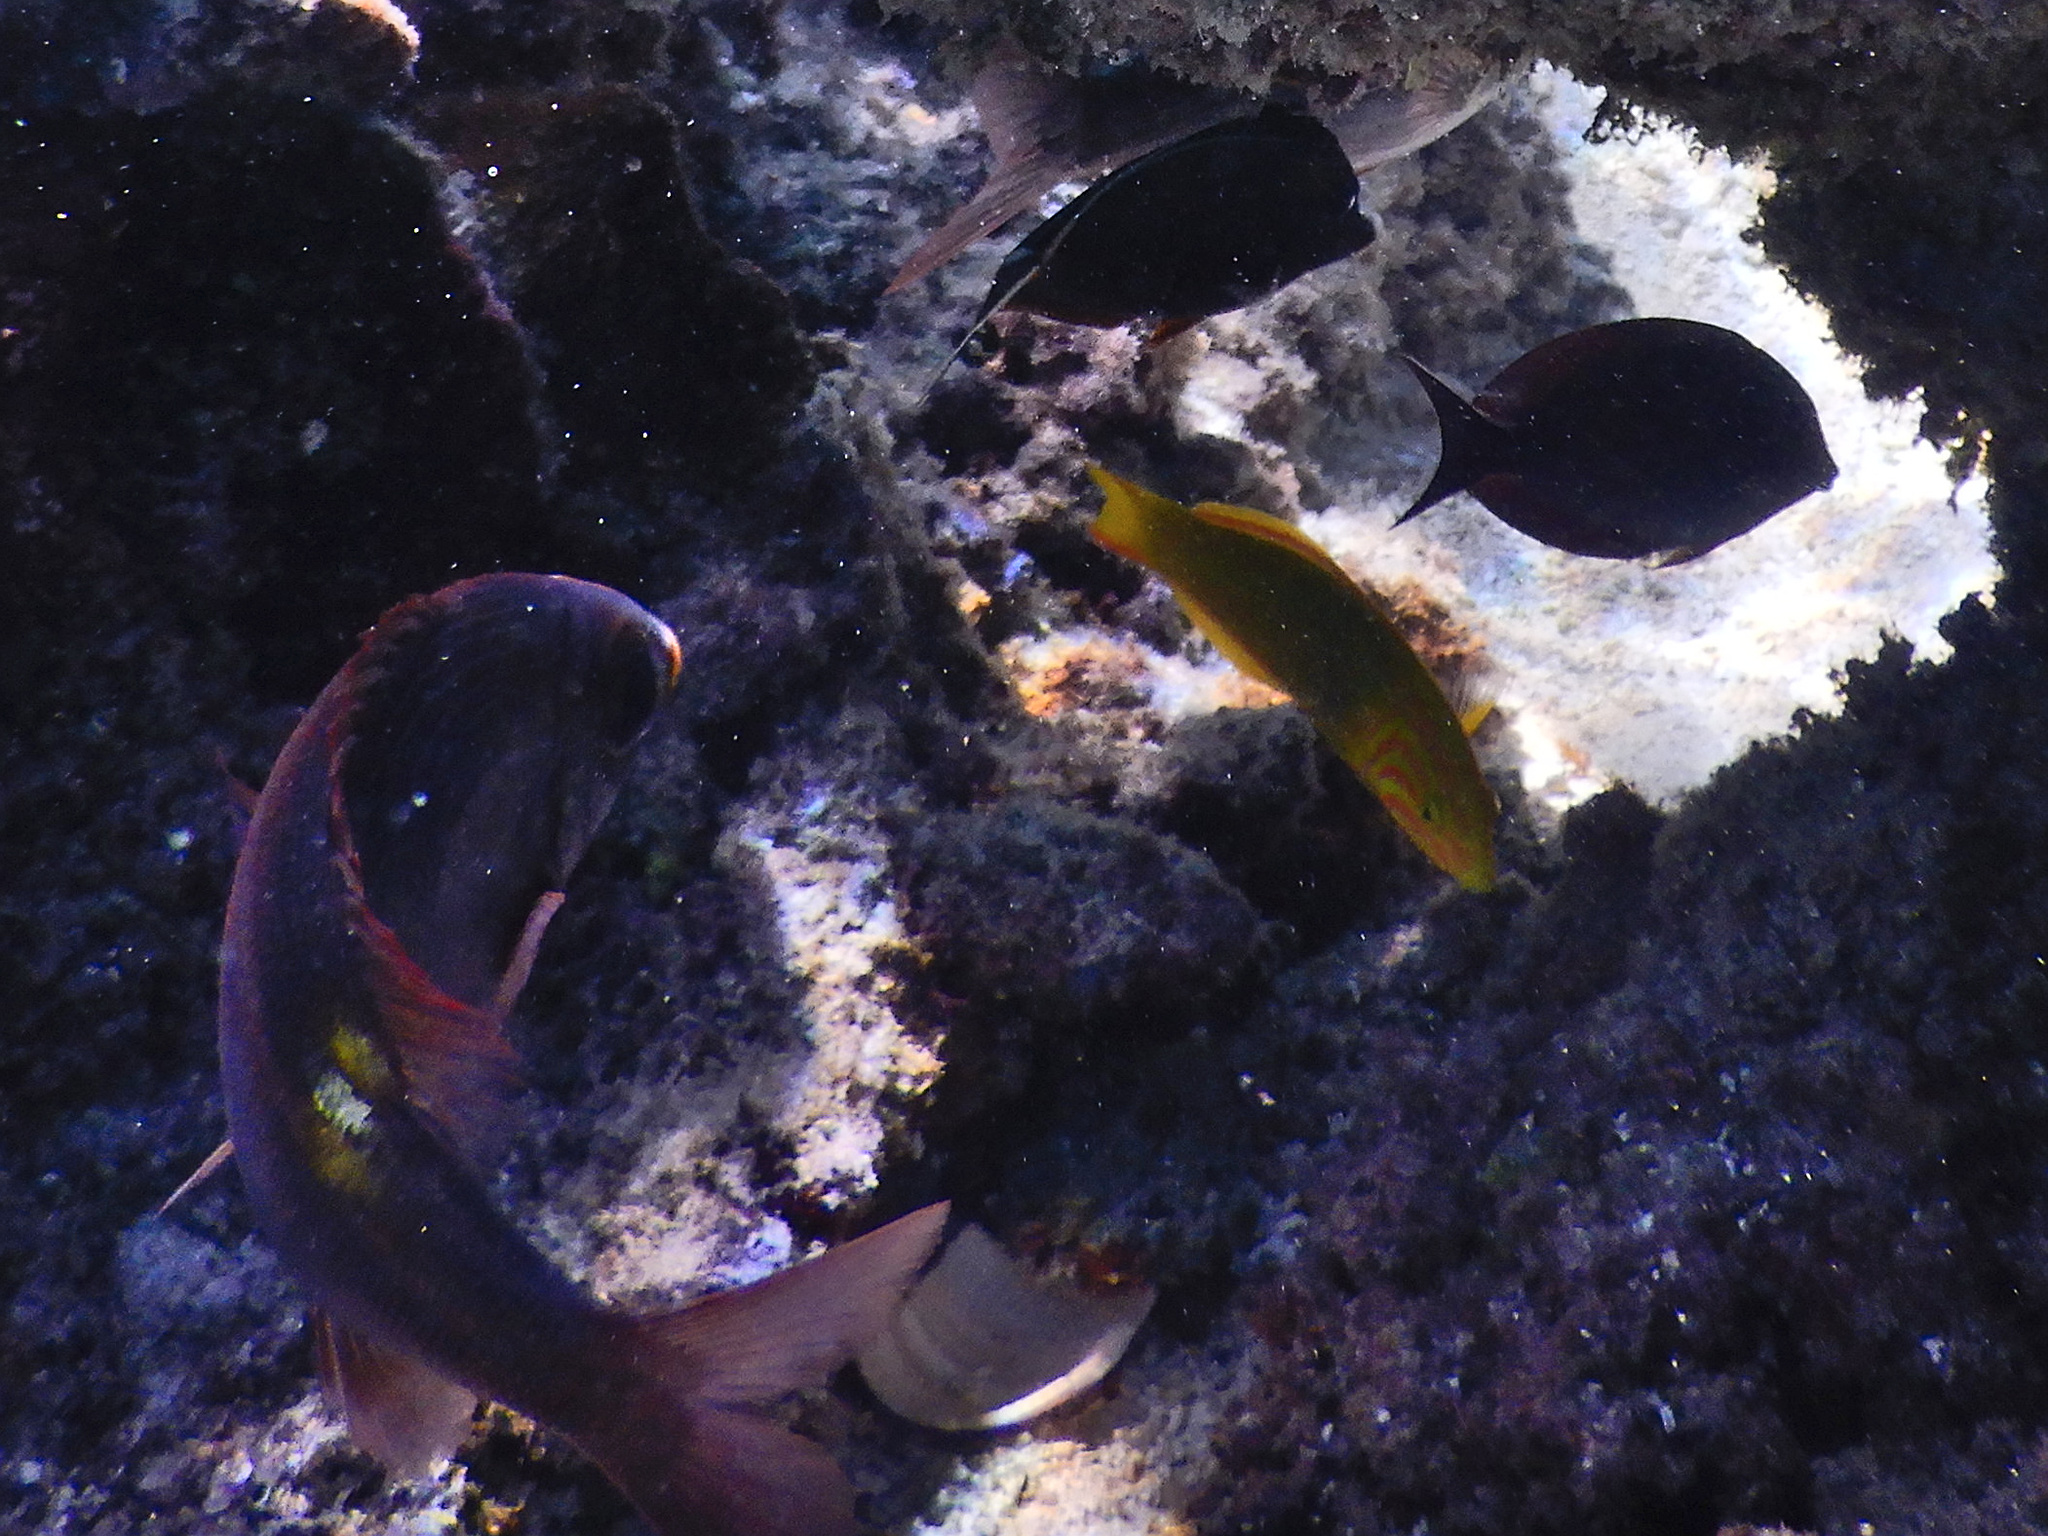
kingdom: Animalia
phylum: Chordata
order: Perciformes
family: Lethrinidae
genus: Gnathodentex
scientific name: Gnathodentex aureolineatus
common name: Gold-lined sea bream
